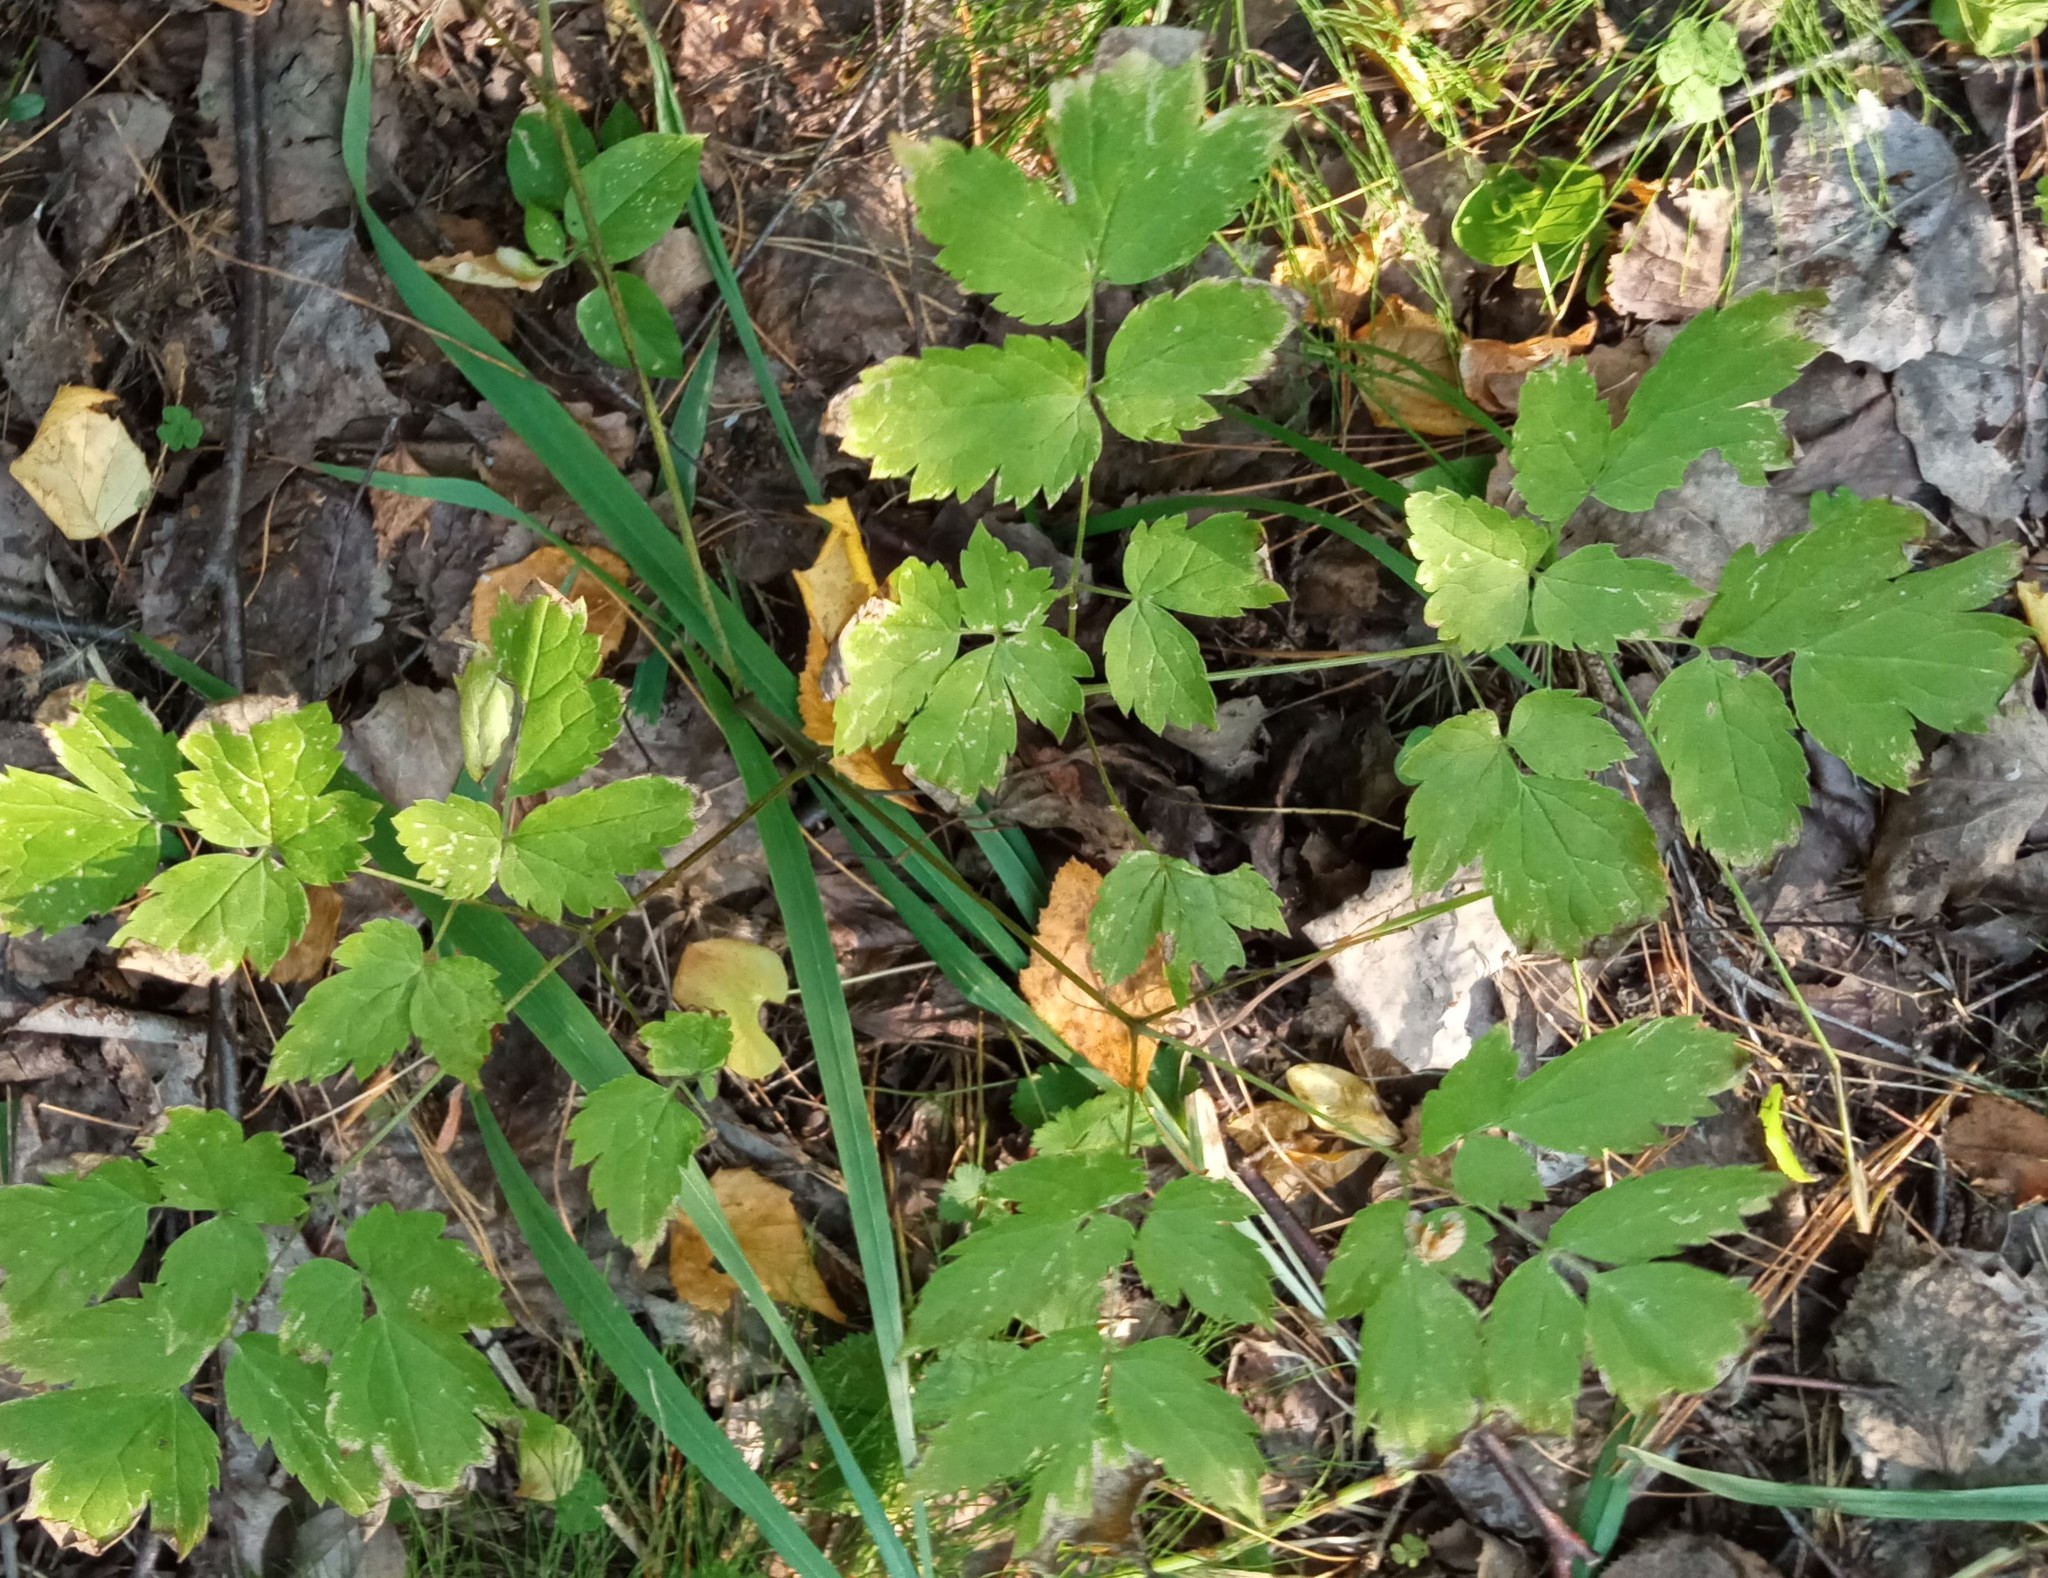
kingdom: Plantae
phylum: Tracheophyta
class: Magnoliopsida
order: Ranunculales
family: Ranunculaceae
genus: Actaea
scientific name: Actaea erythrocarpa
